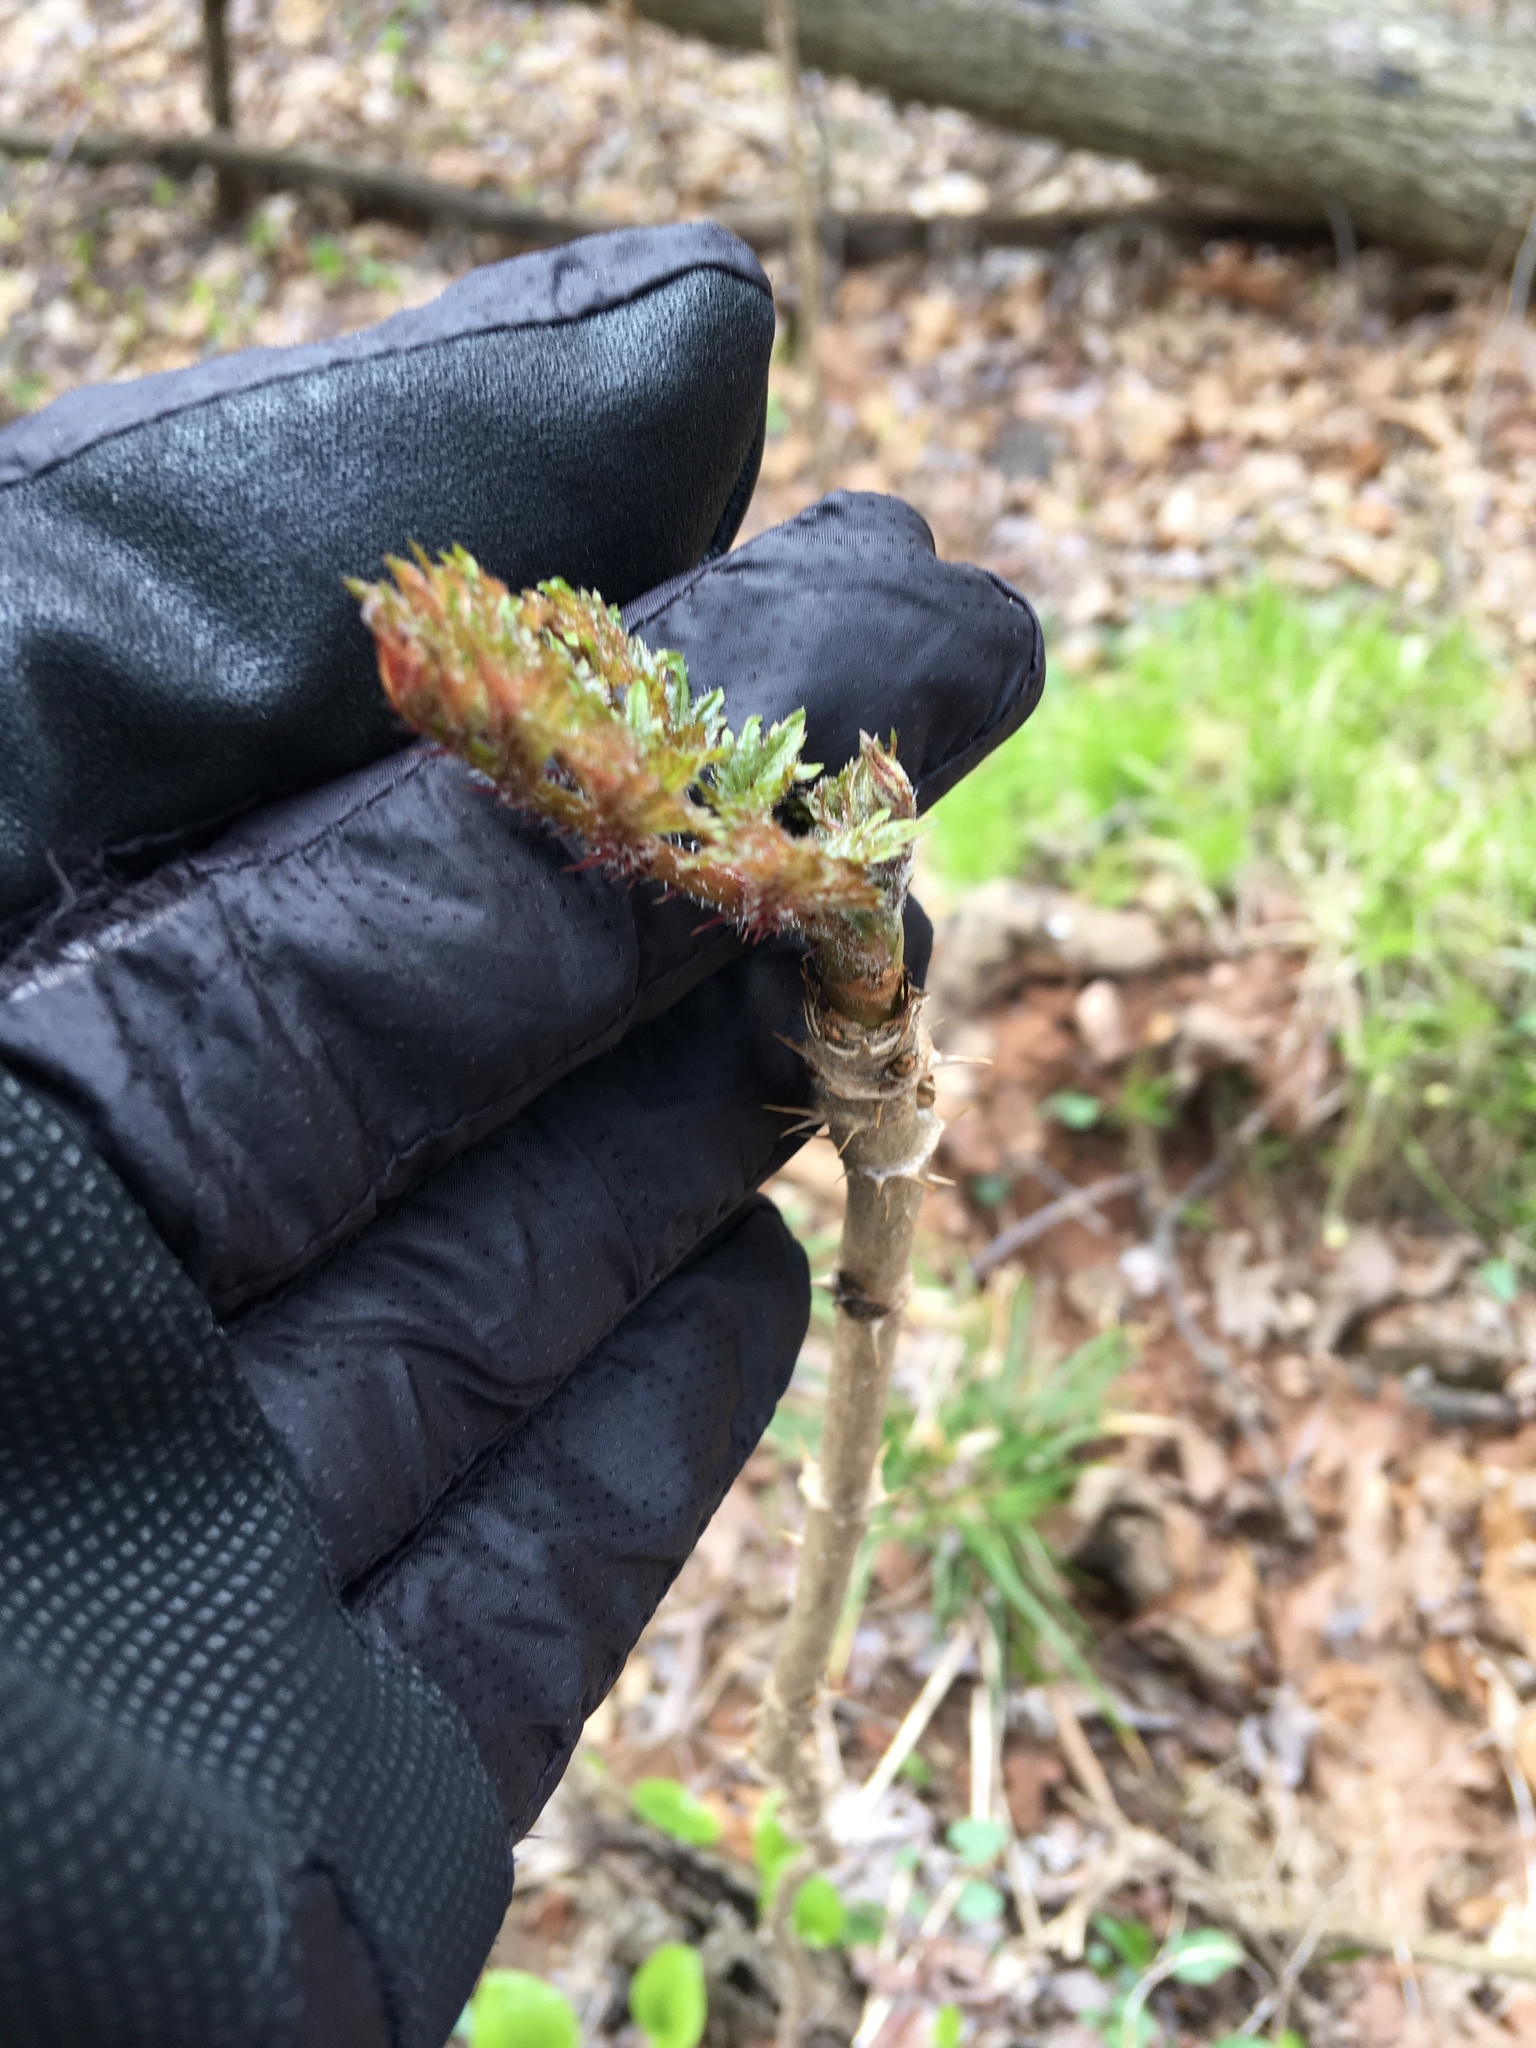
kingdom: Plantae
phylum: Tracheophyta
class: Magnoliopsida
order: Apiales
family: Araliaceae
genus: Aralia
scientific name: Aralia elata
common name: Japanese angelica-tree
